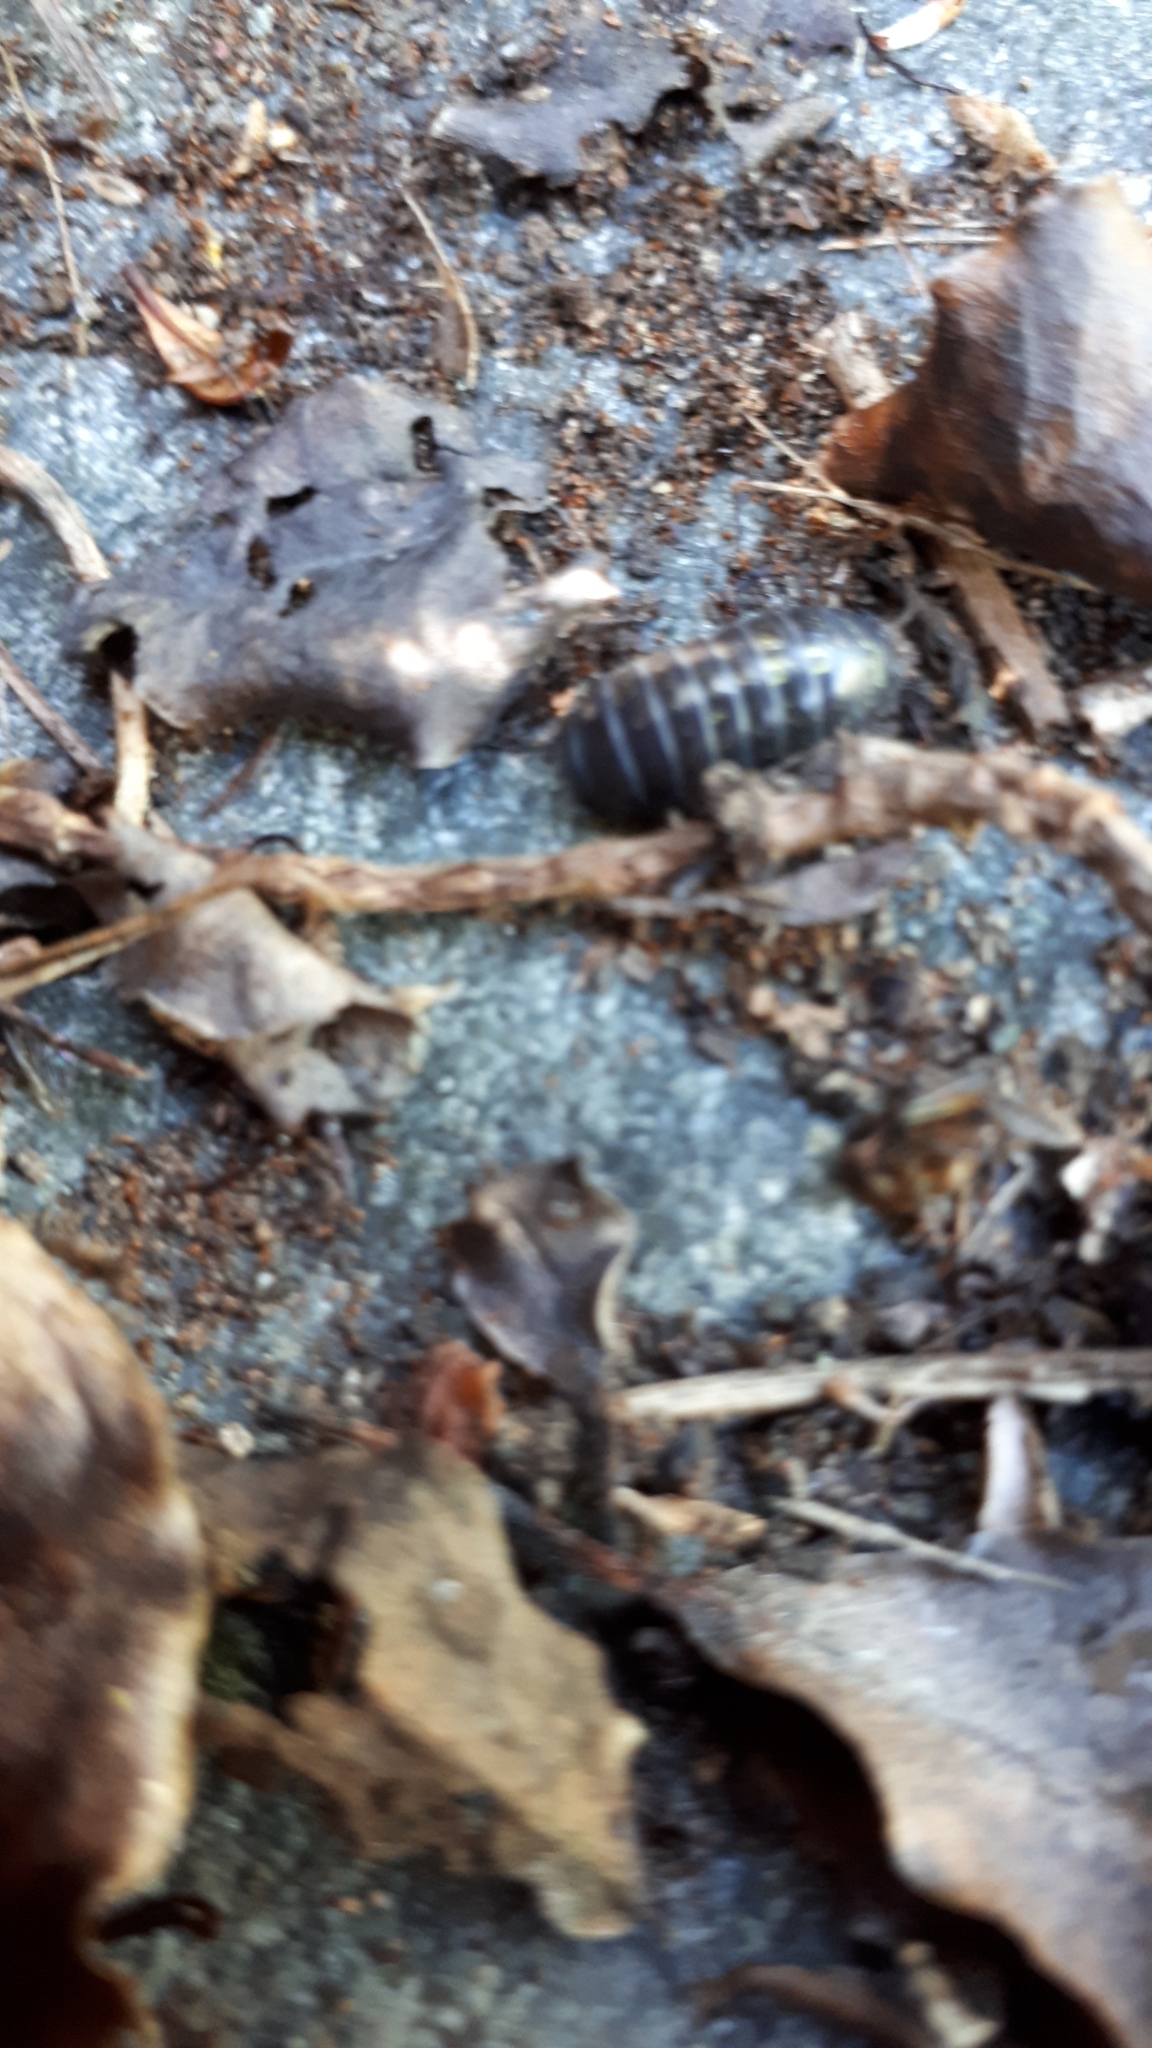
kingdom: Animalia
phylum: Arthropoda
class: Malacostraca
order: Isopoda
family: Armadillidiidae
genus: Armadillidium
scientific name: Armadillidium vulgare
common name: Common pill woodlouse
